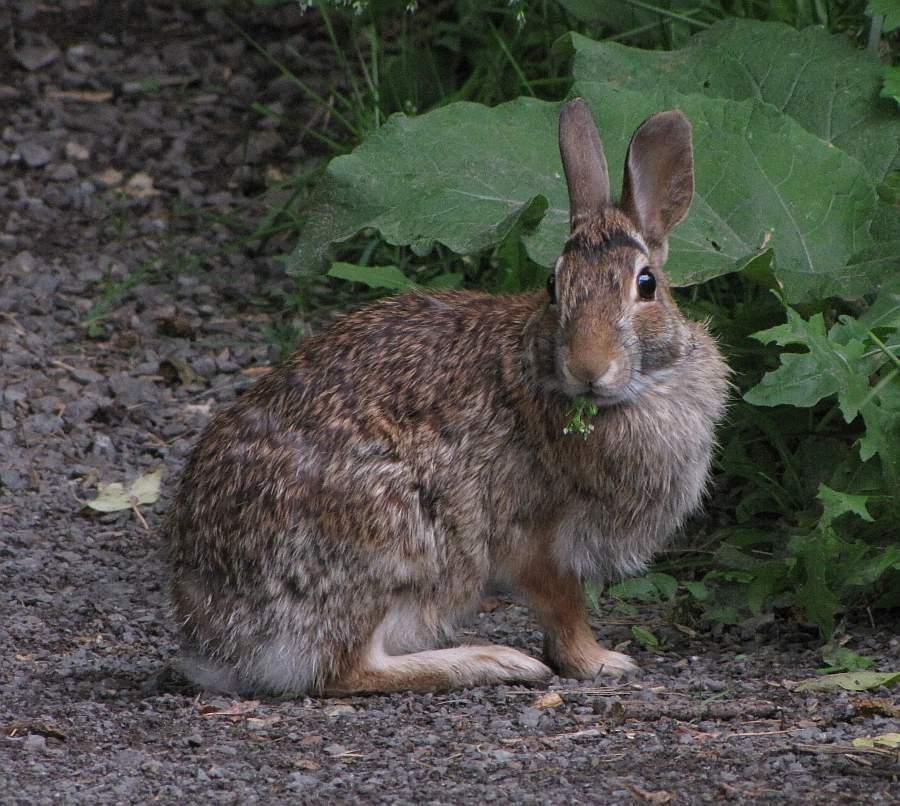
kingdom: Animalia
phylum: Chordata
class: Mammalia
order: Lagomorpha
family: Leporidae
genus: Sylvilagus
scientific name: Sylvilagus floridanus
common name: Eastern cottontail
